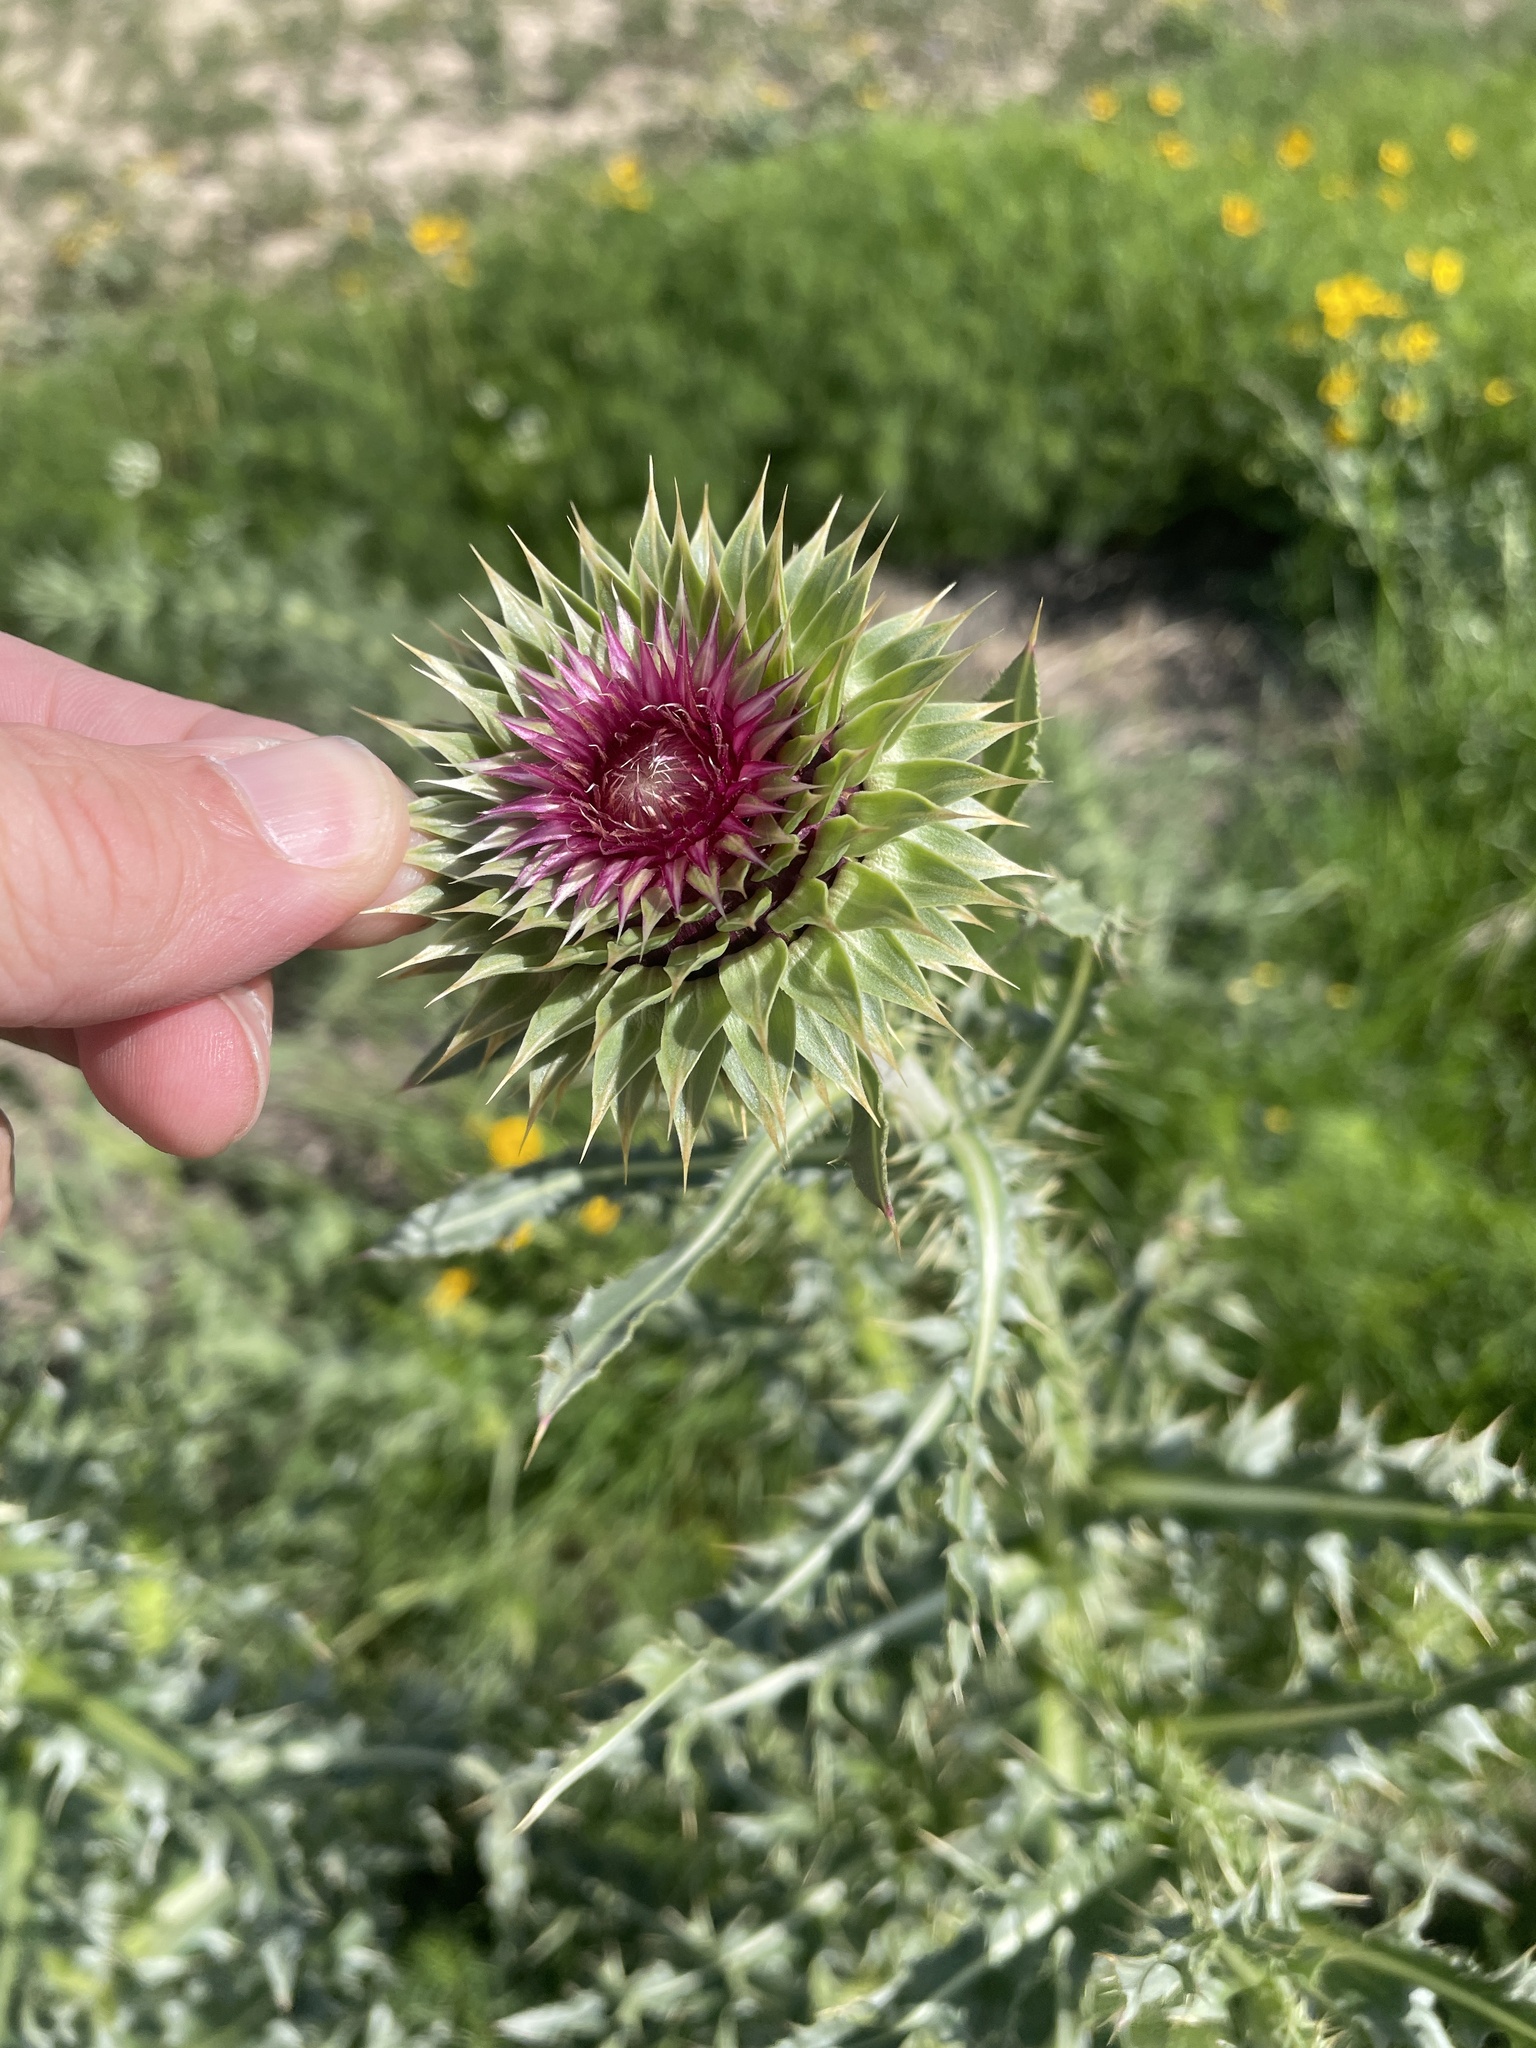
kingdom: Plantae
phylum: Tracheophyta
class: Magnoliopsida
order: Asterales
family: Asteraceae
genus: Carduus
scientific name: Carduus nutans
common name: Musk thistle
